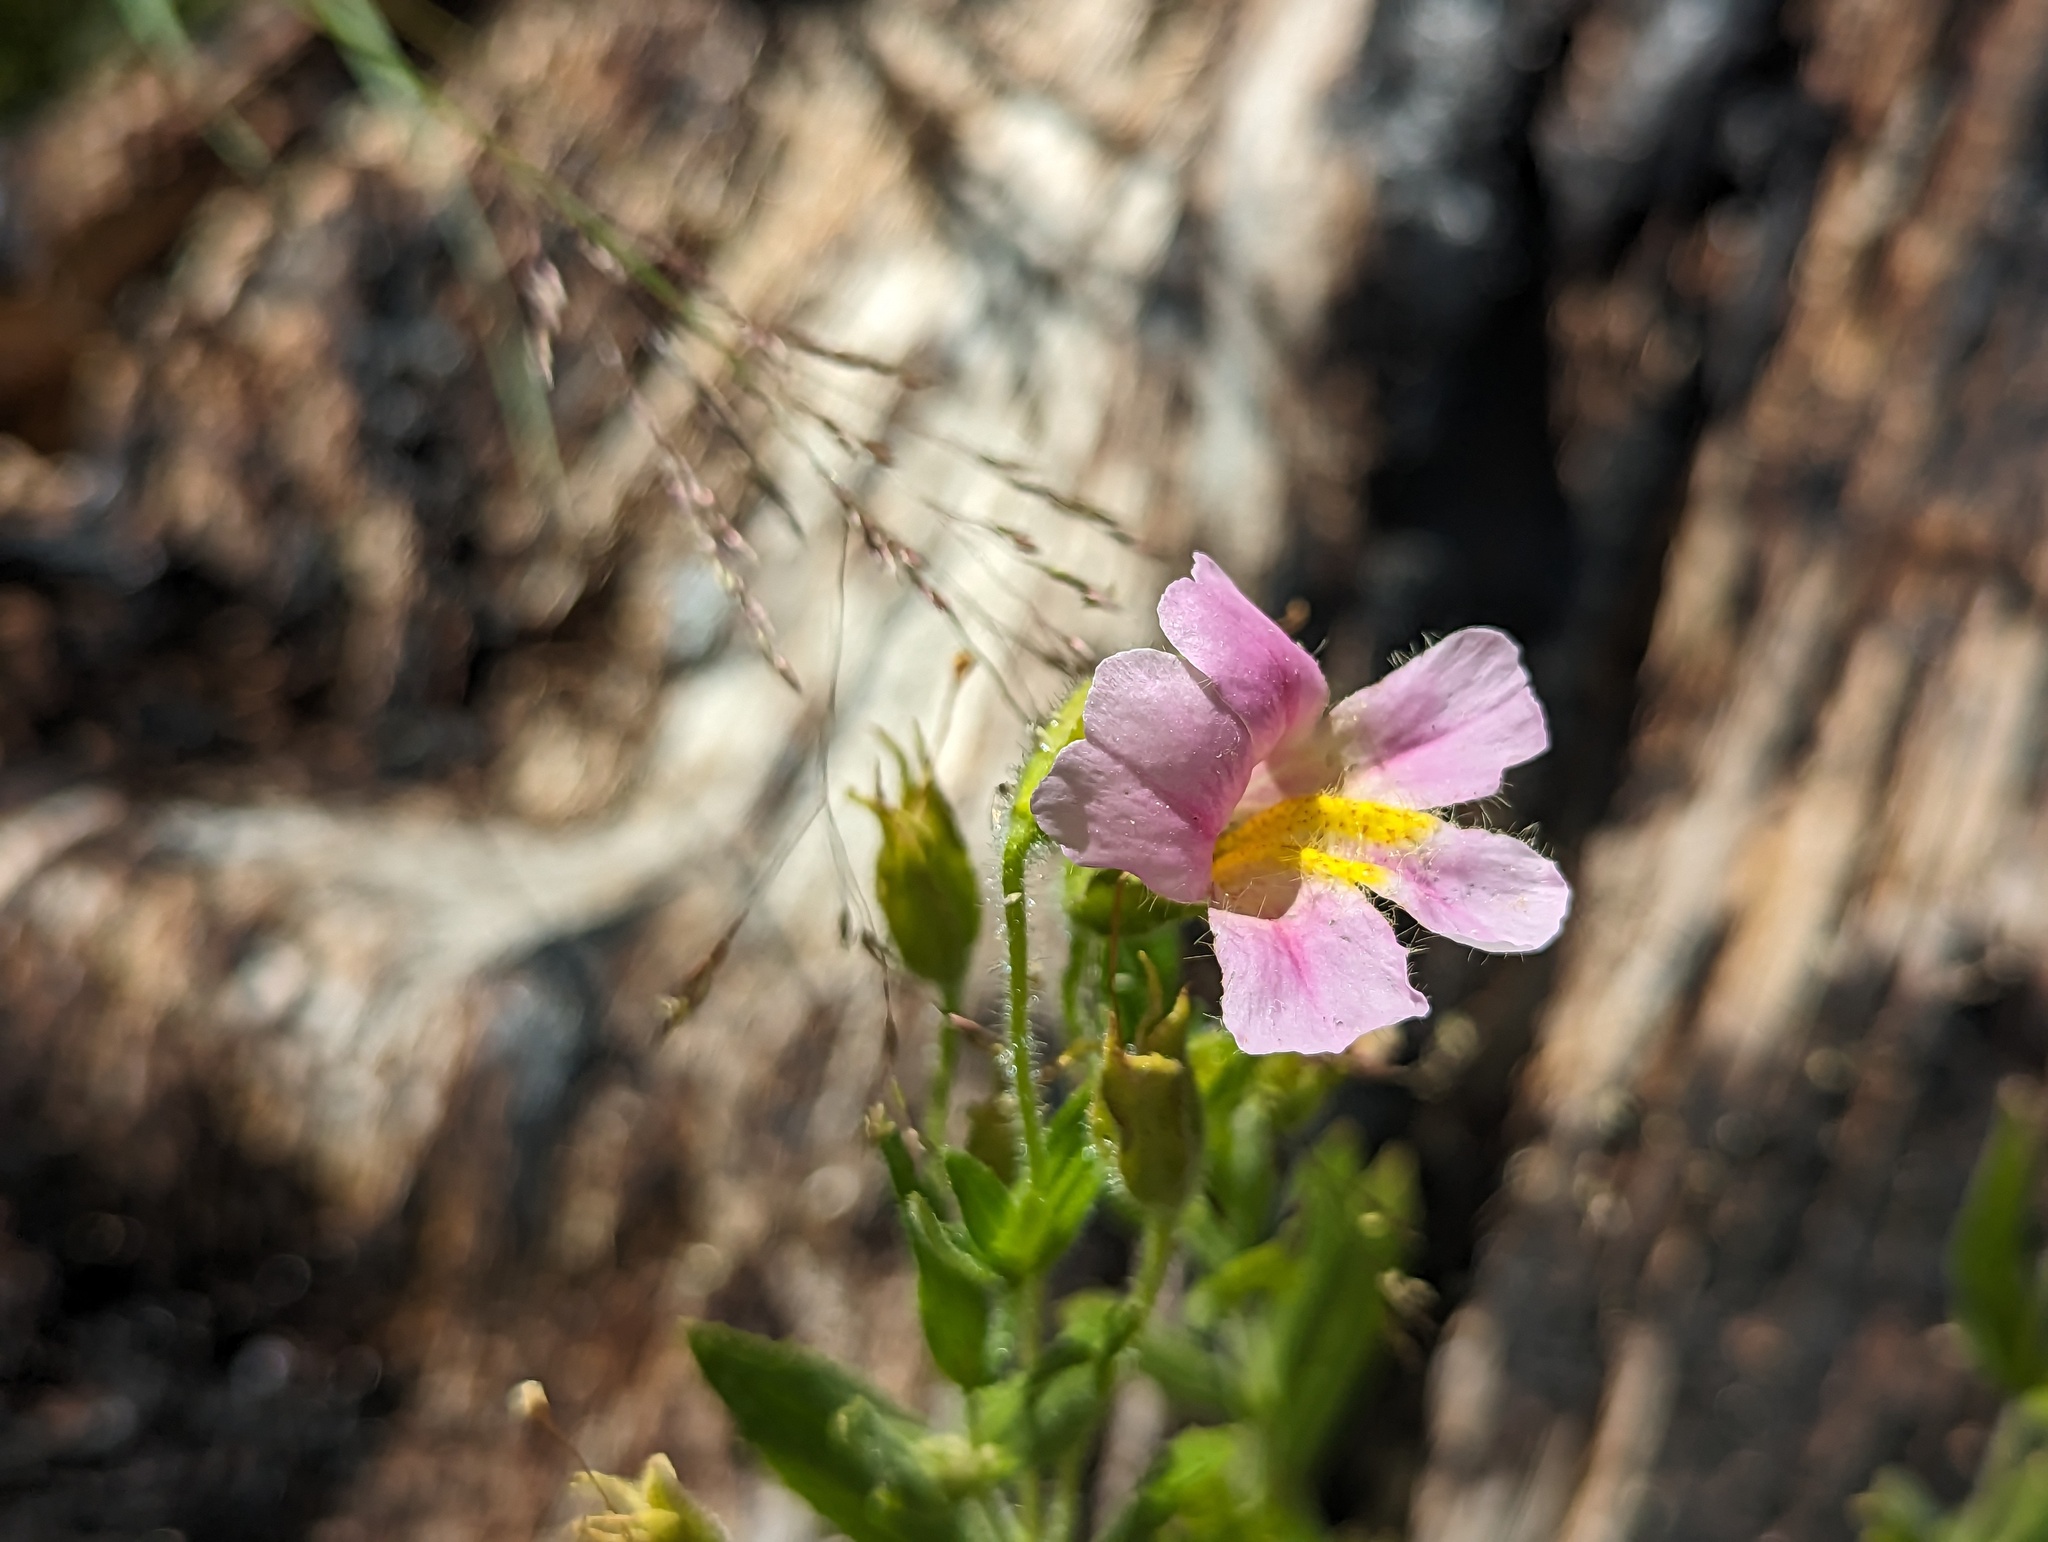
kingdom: Plantae
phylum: Tracheophyta
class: Magnoliopsida
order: Lamiales
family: Phrymaceae
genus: Erythranthe
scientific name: Erythranthe erubescens
